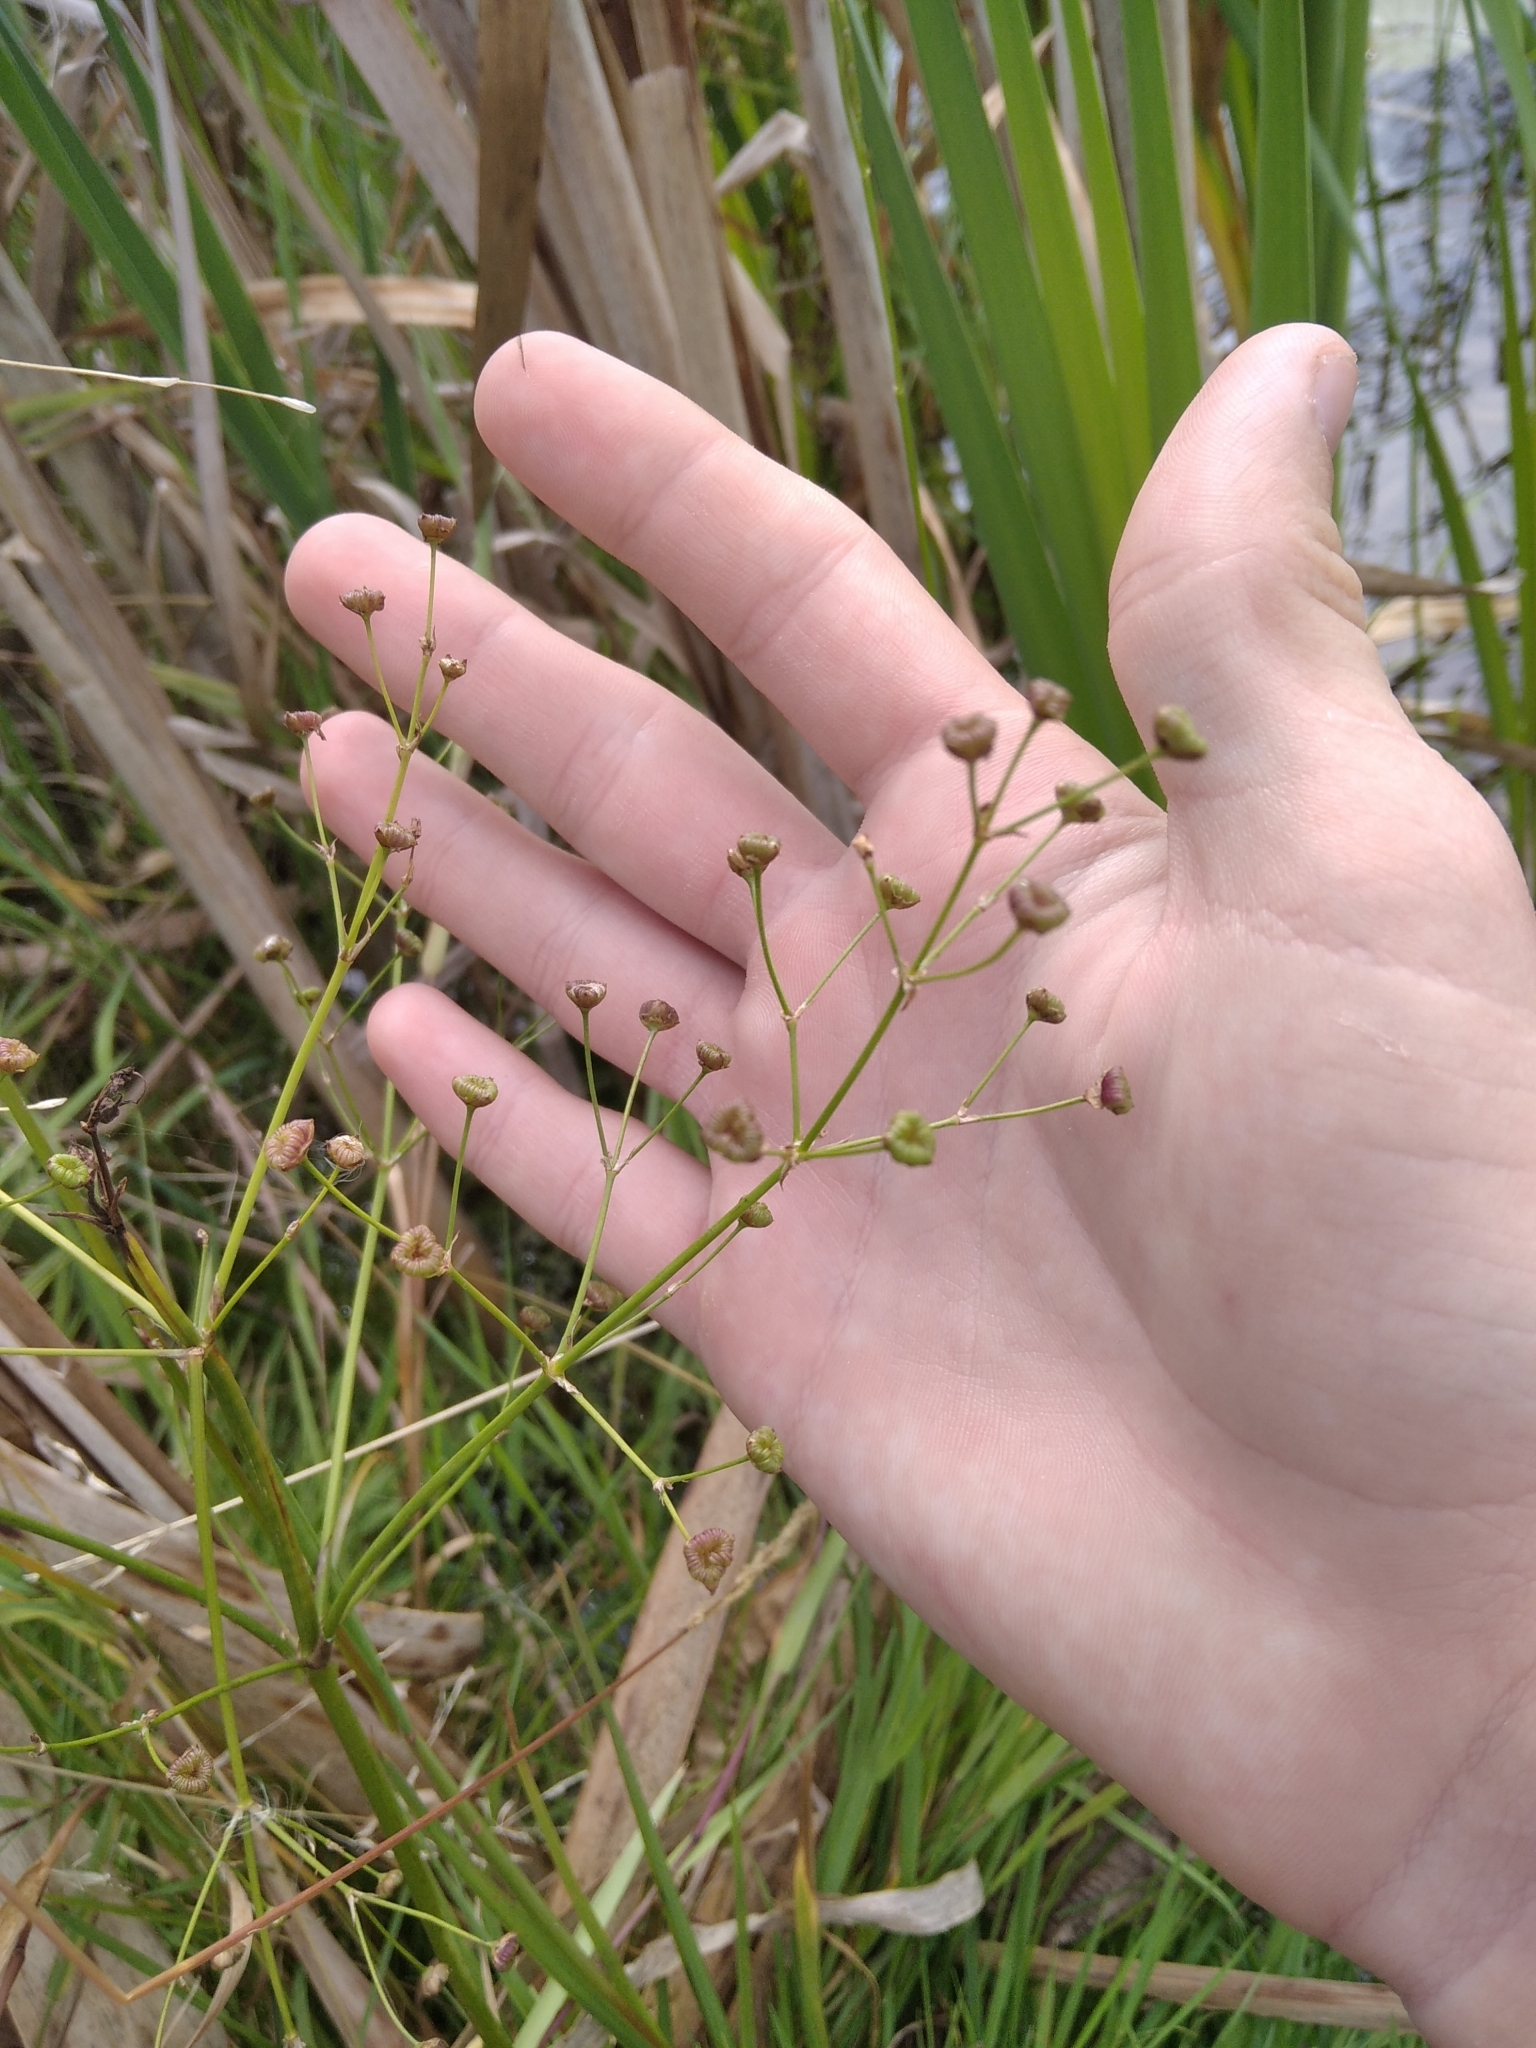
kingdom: Plantae
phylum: Tracheophyta
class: Liliopsida
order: Alismatales
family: Alismataceae
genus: Alisma
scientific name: Alisma plantago-aquatica
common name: Water-plantain
